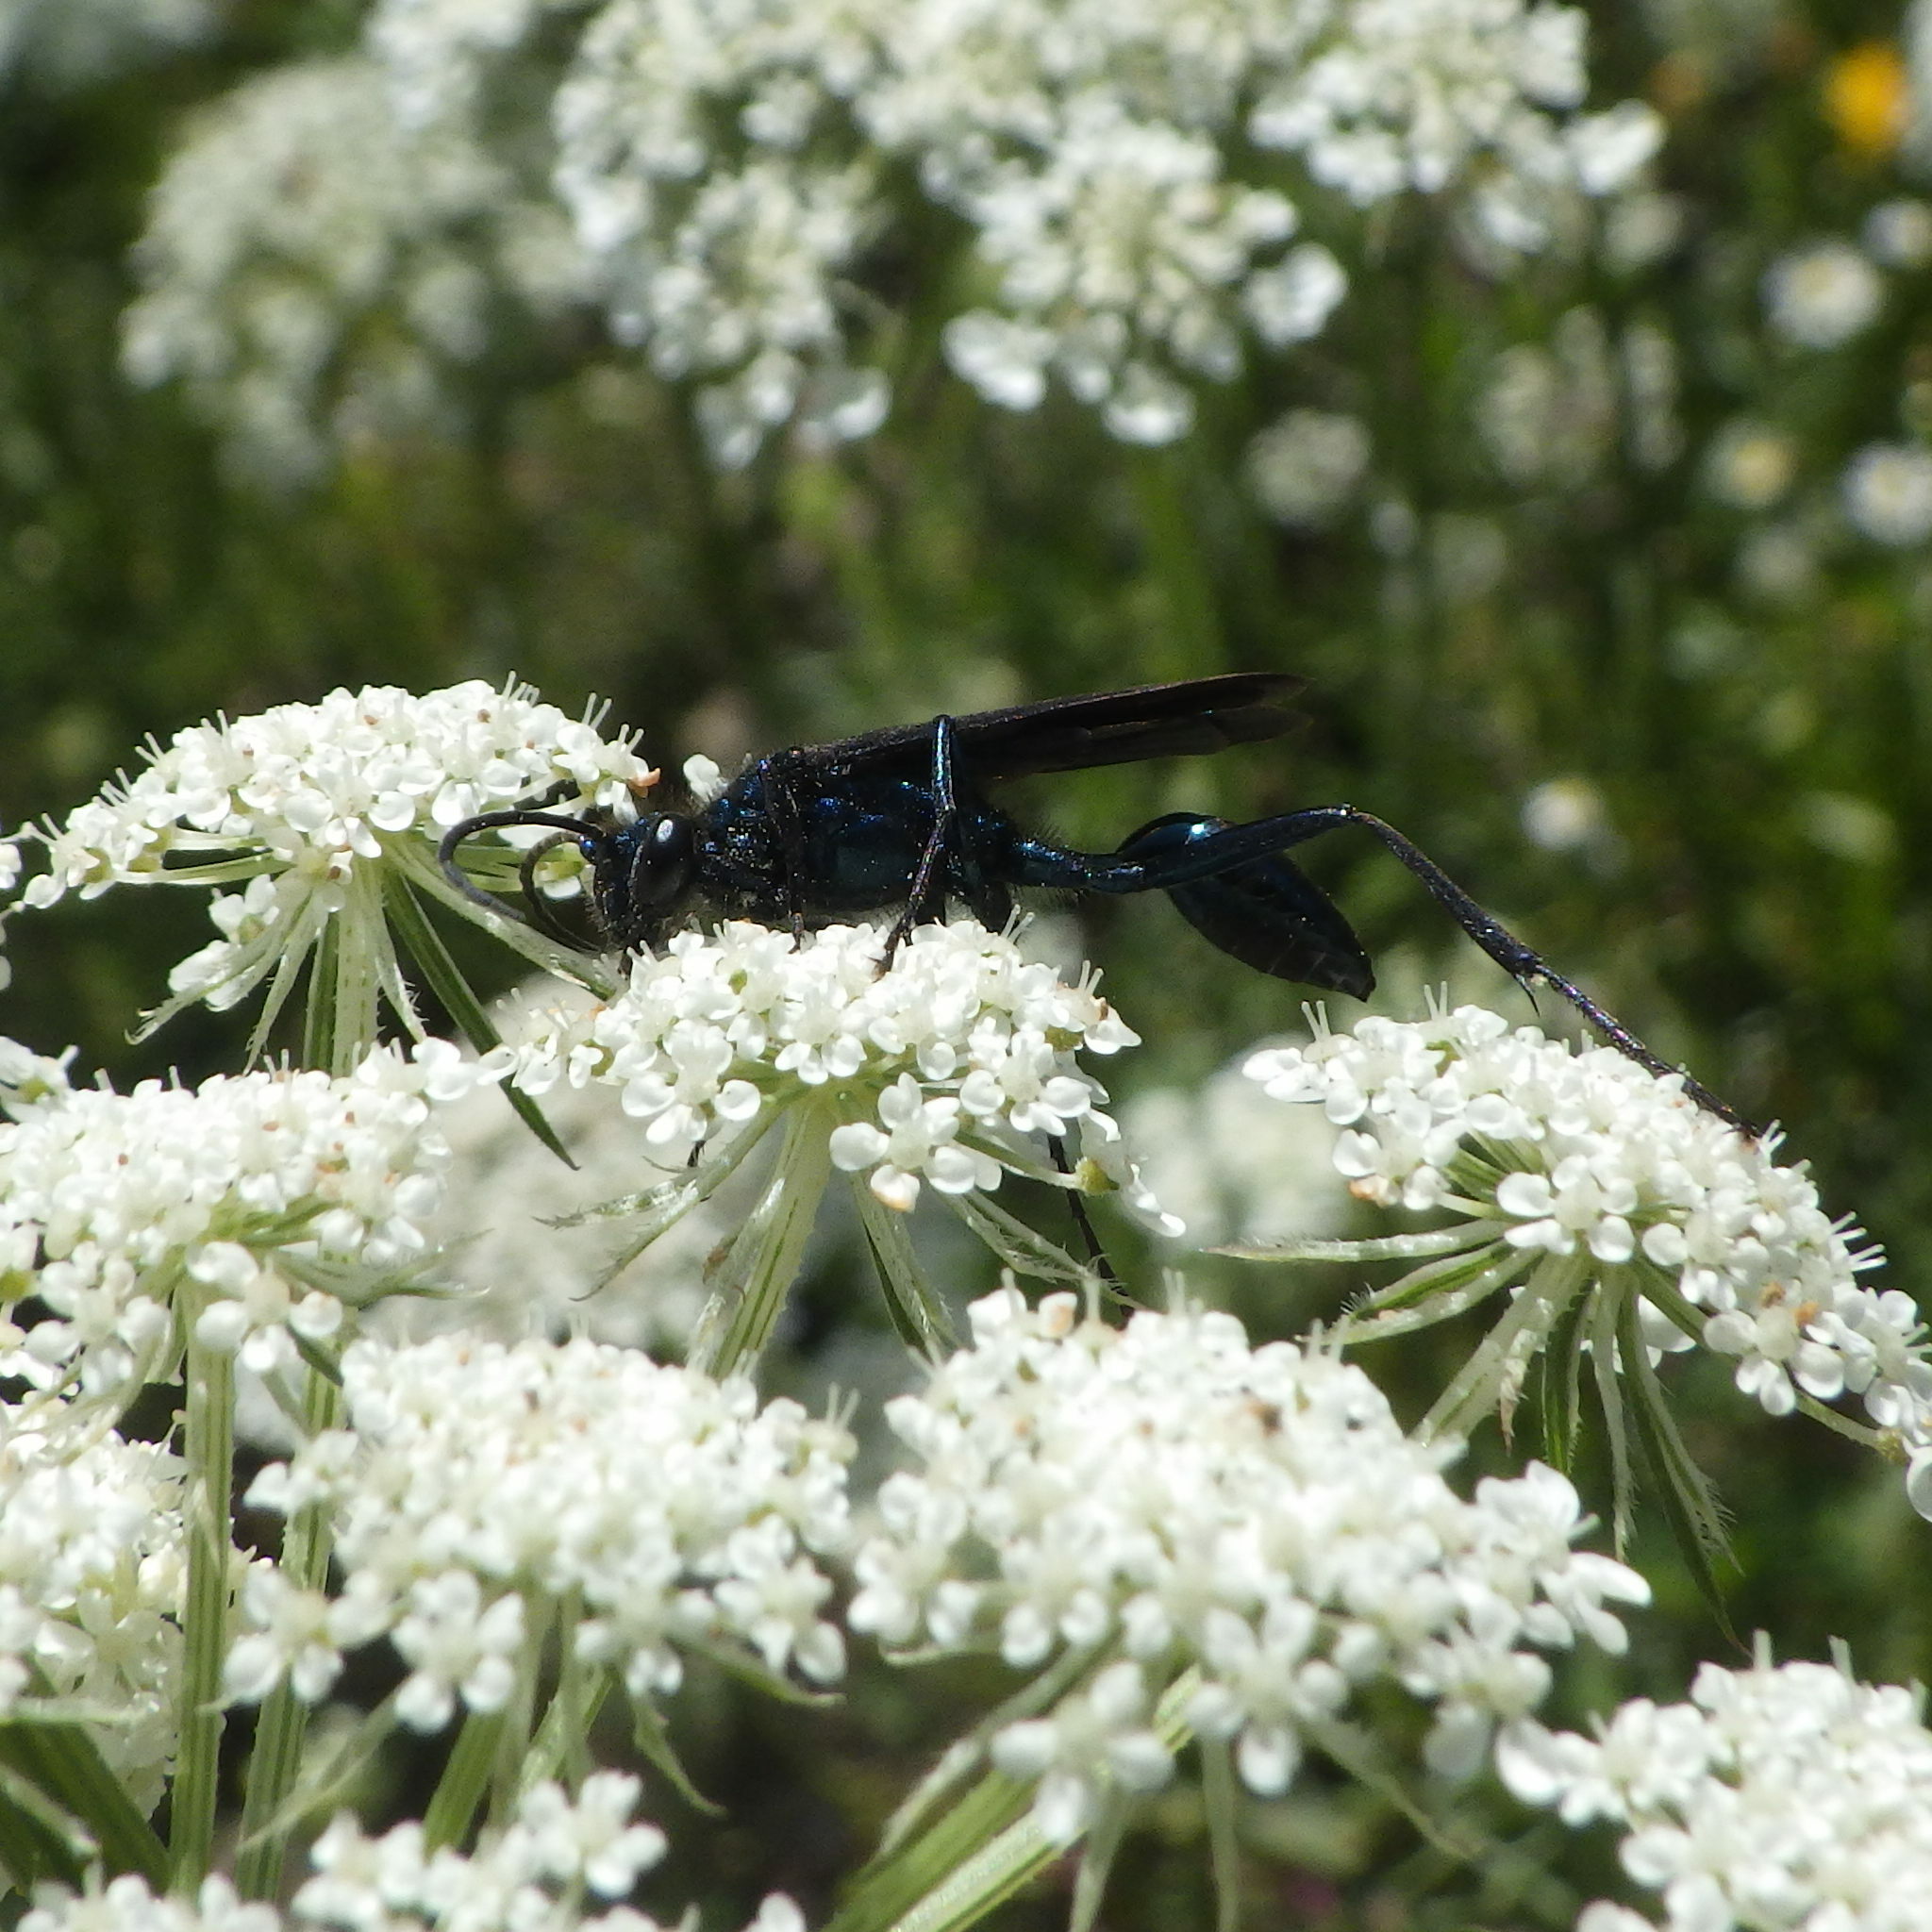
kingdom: Animalia
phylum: Arthropoda
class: Insecta
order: Hymenoptera
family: Sphecidae
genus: Chalybion
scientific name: Chalybion californicum
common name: Mud dauber
